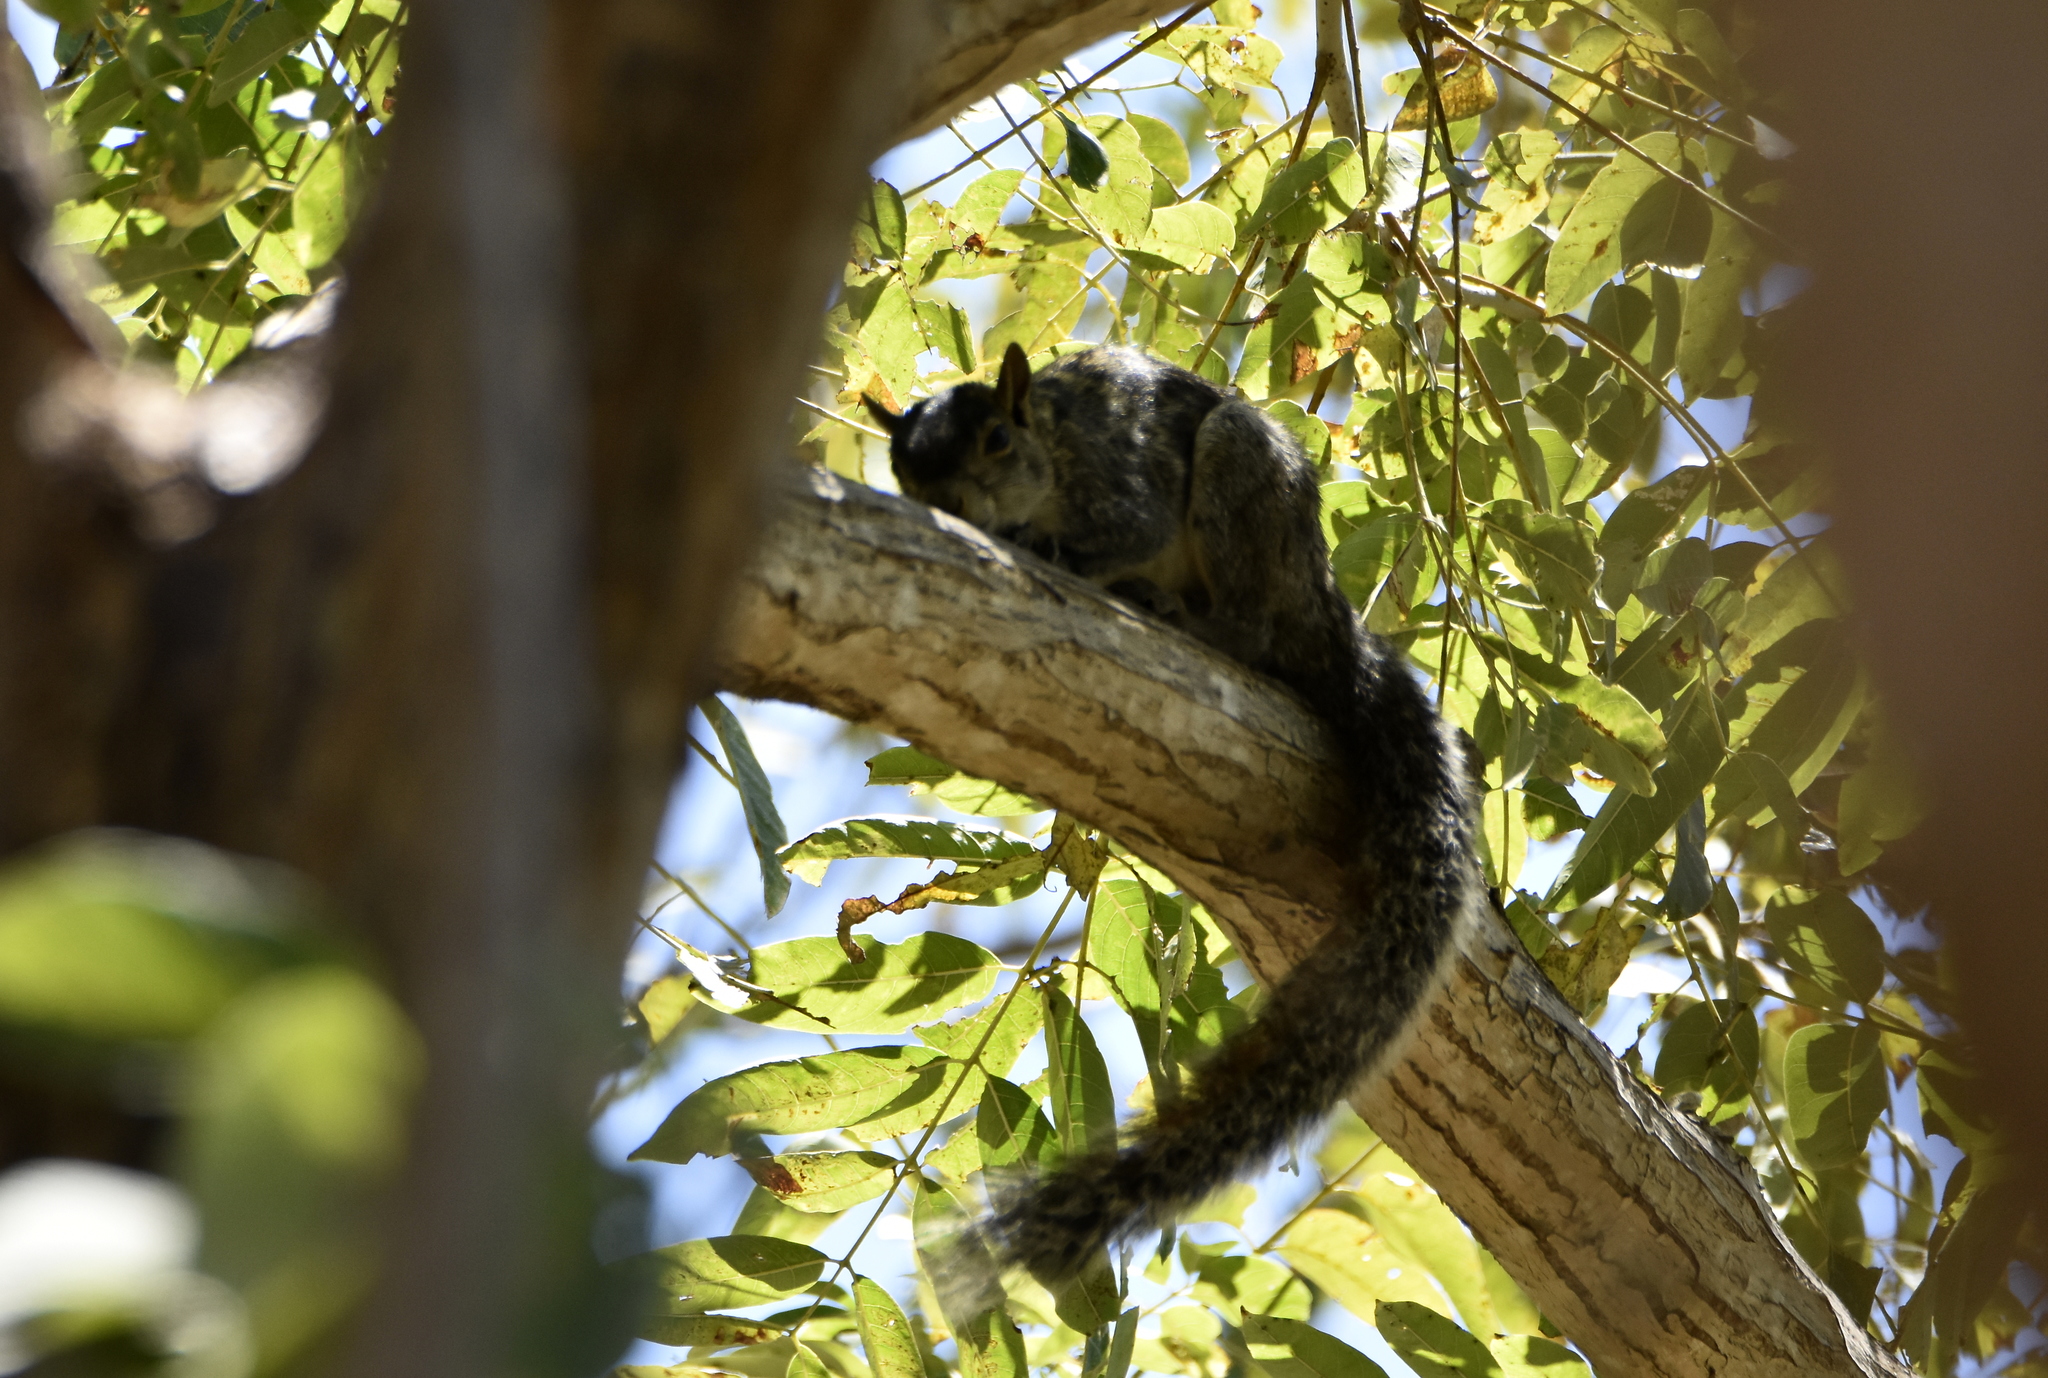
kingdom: Animalia
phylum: Chordata
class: Mammalia
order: Rodentia
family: Sciuridae
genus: Sciurus
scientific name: Sciurus colliaei
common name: Collie's squirrel
